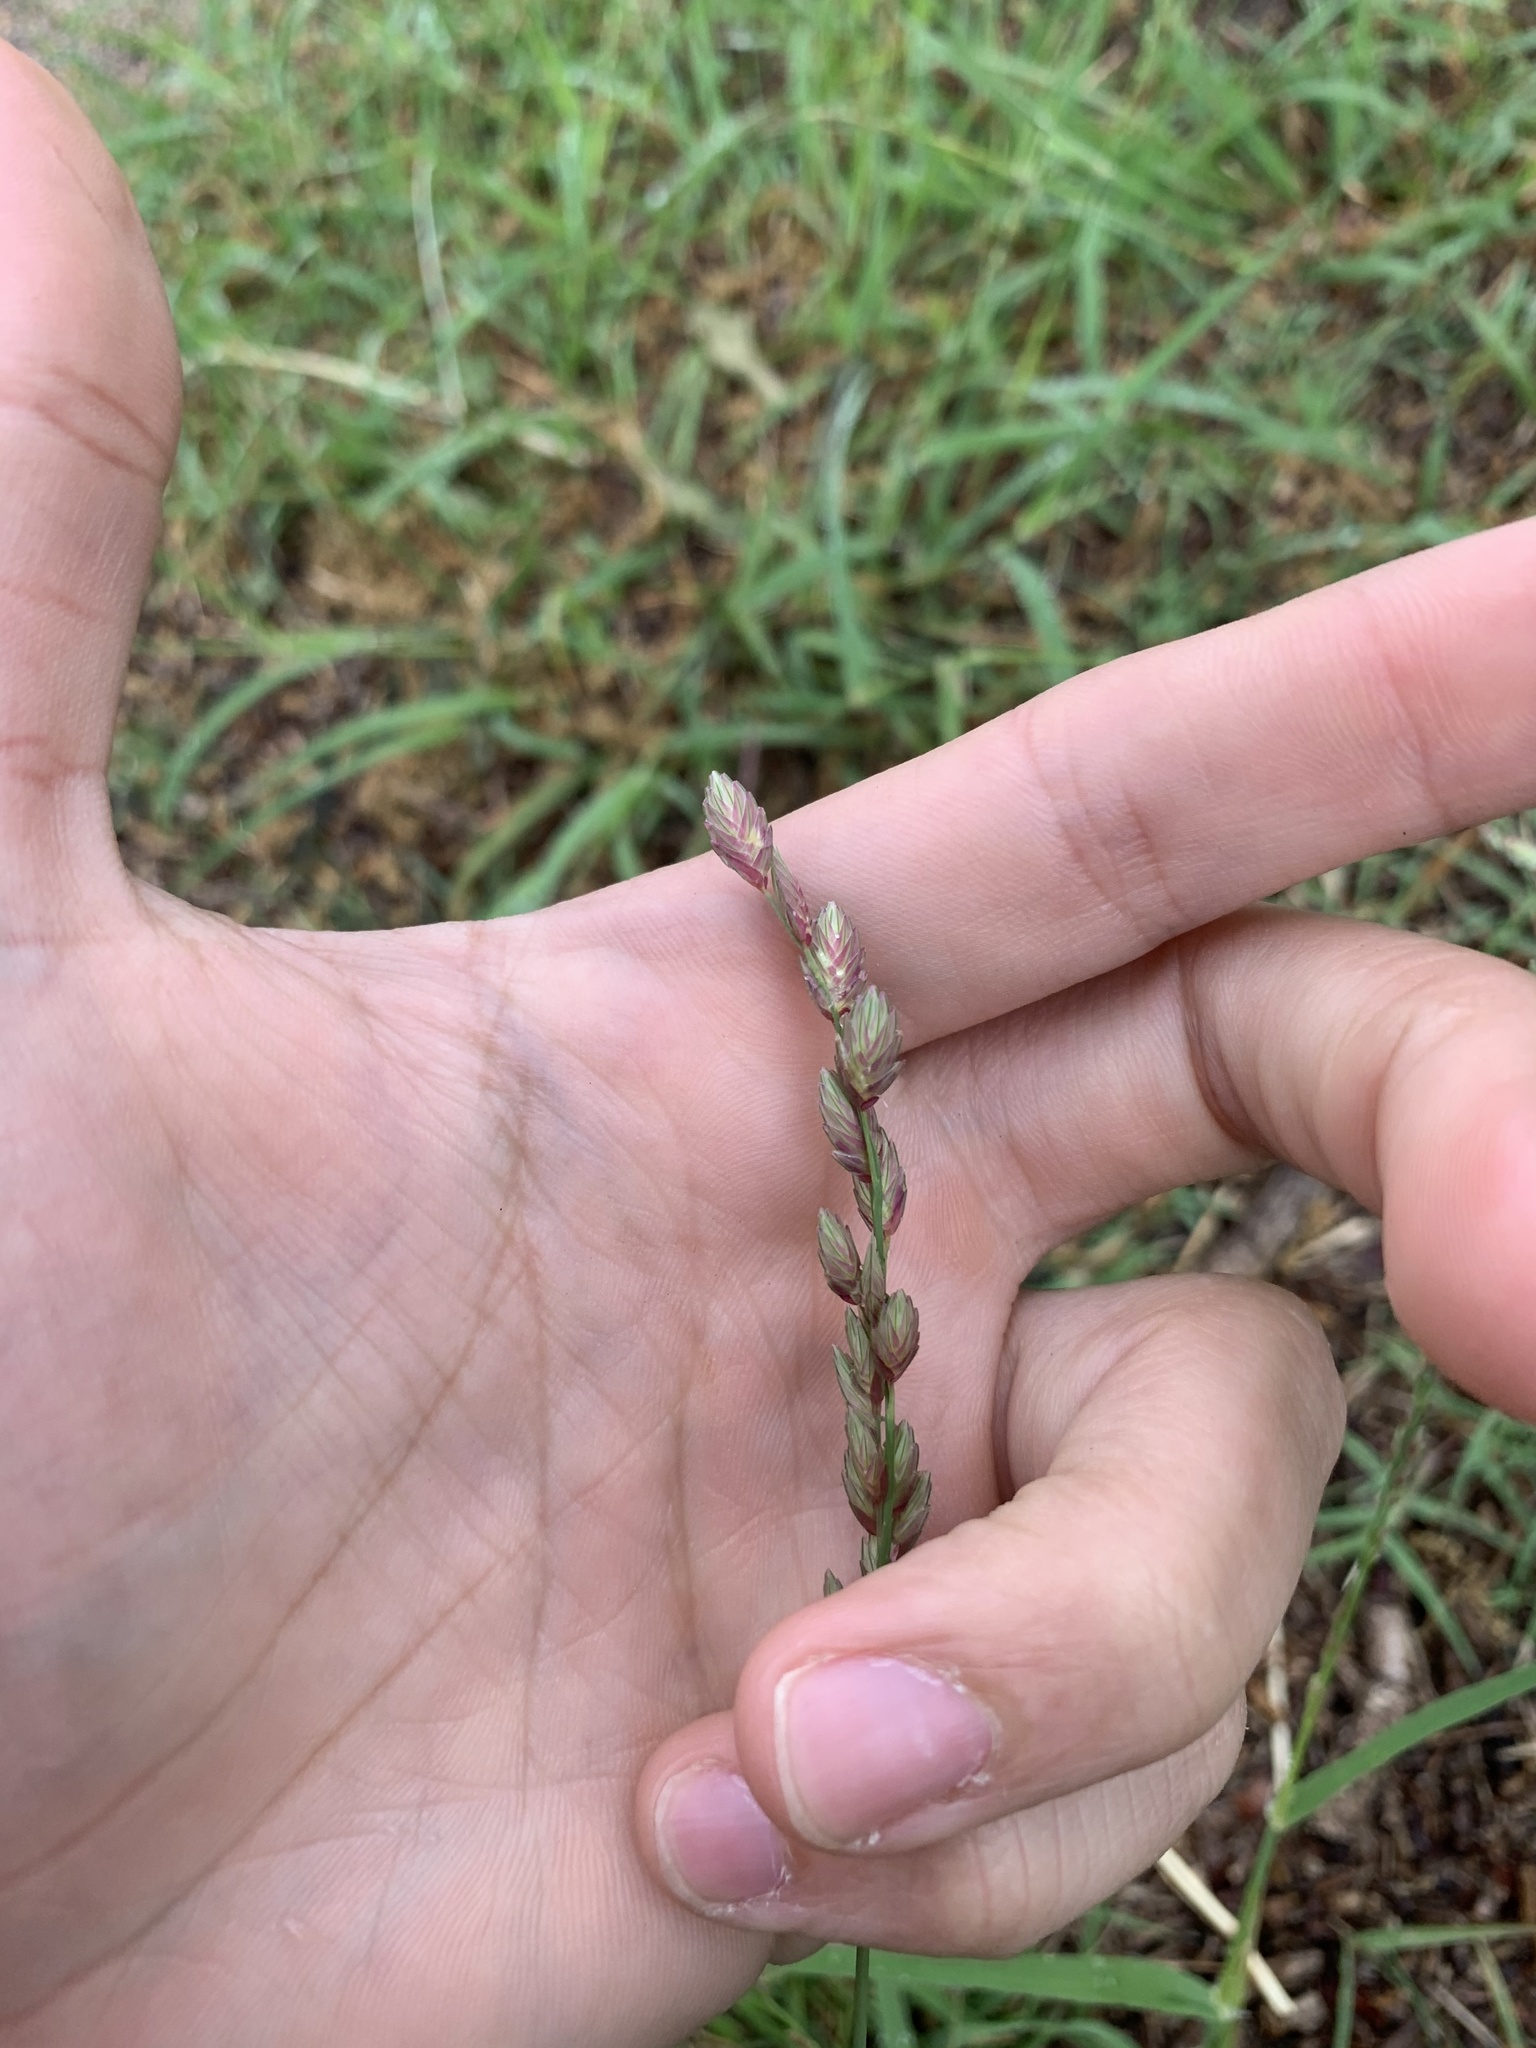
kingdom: Plantae
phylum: Tracheophyta
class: Liliopsida
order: Poales
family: Poaceae
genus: Eragrostis
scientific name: Eragrostis superba
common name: Wilman lovegrass
